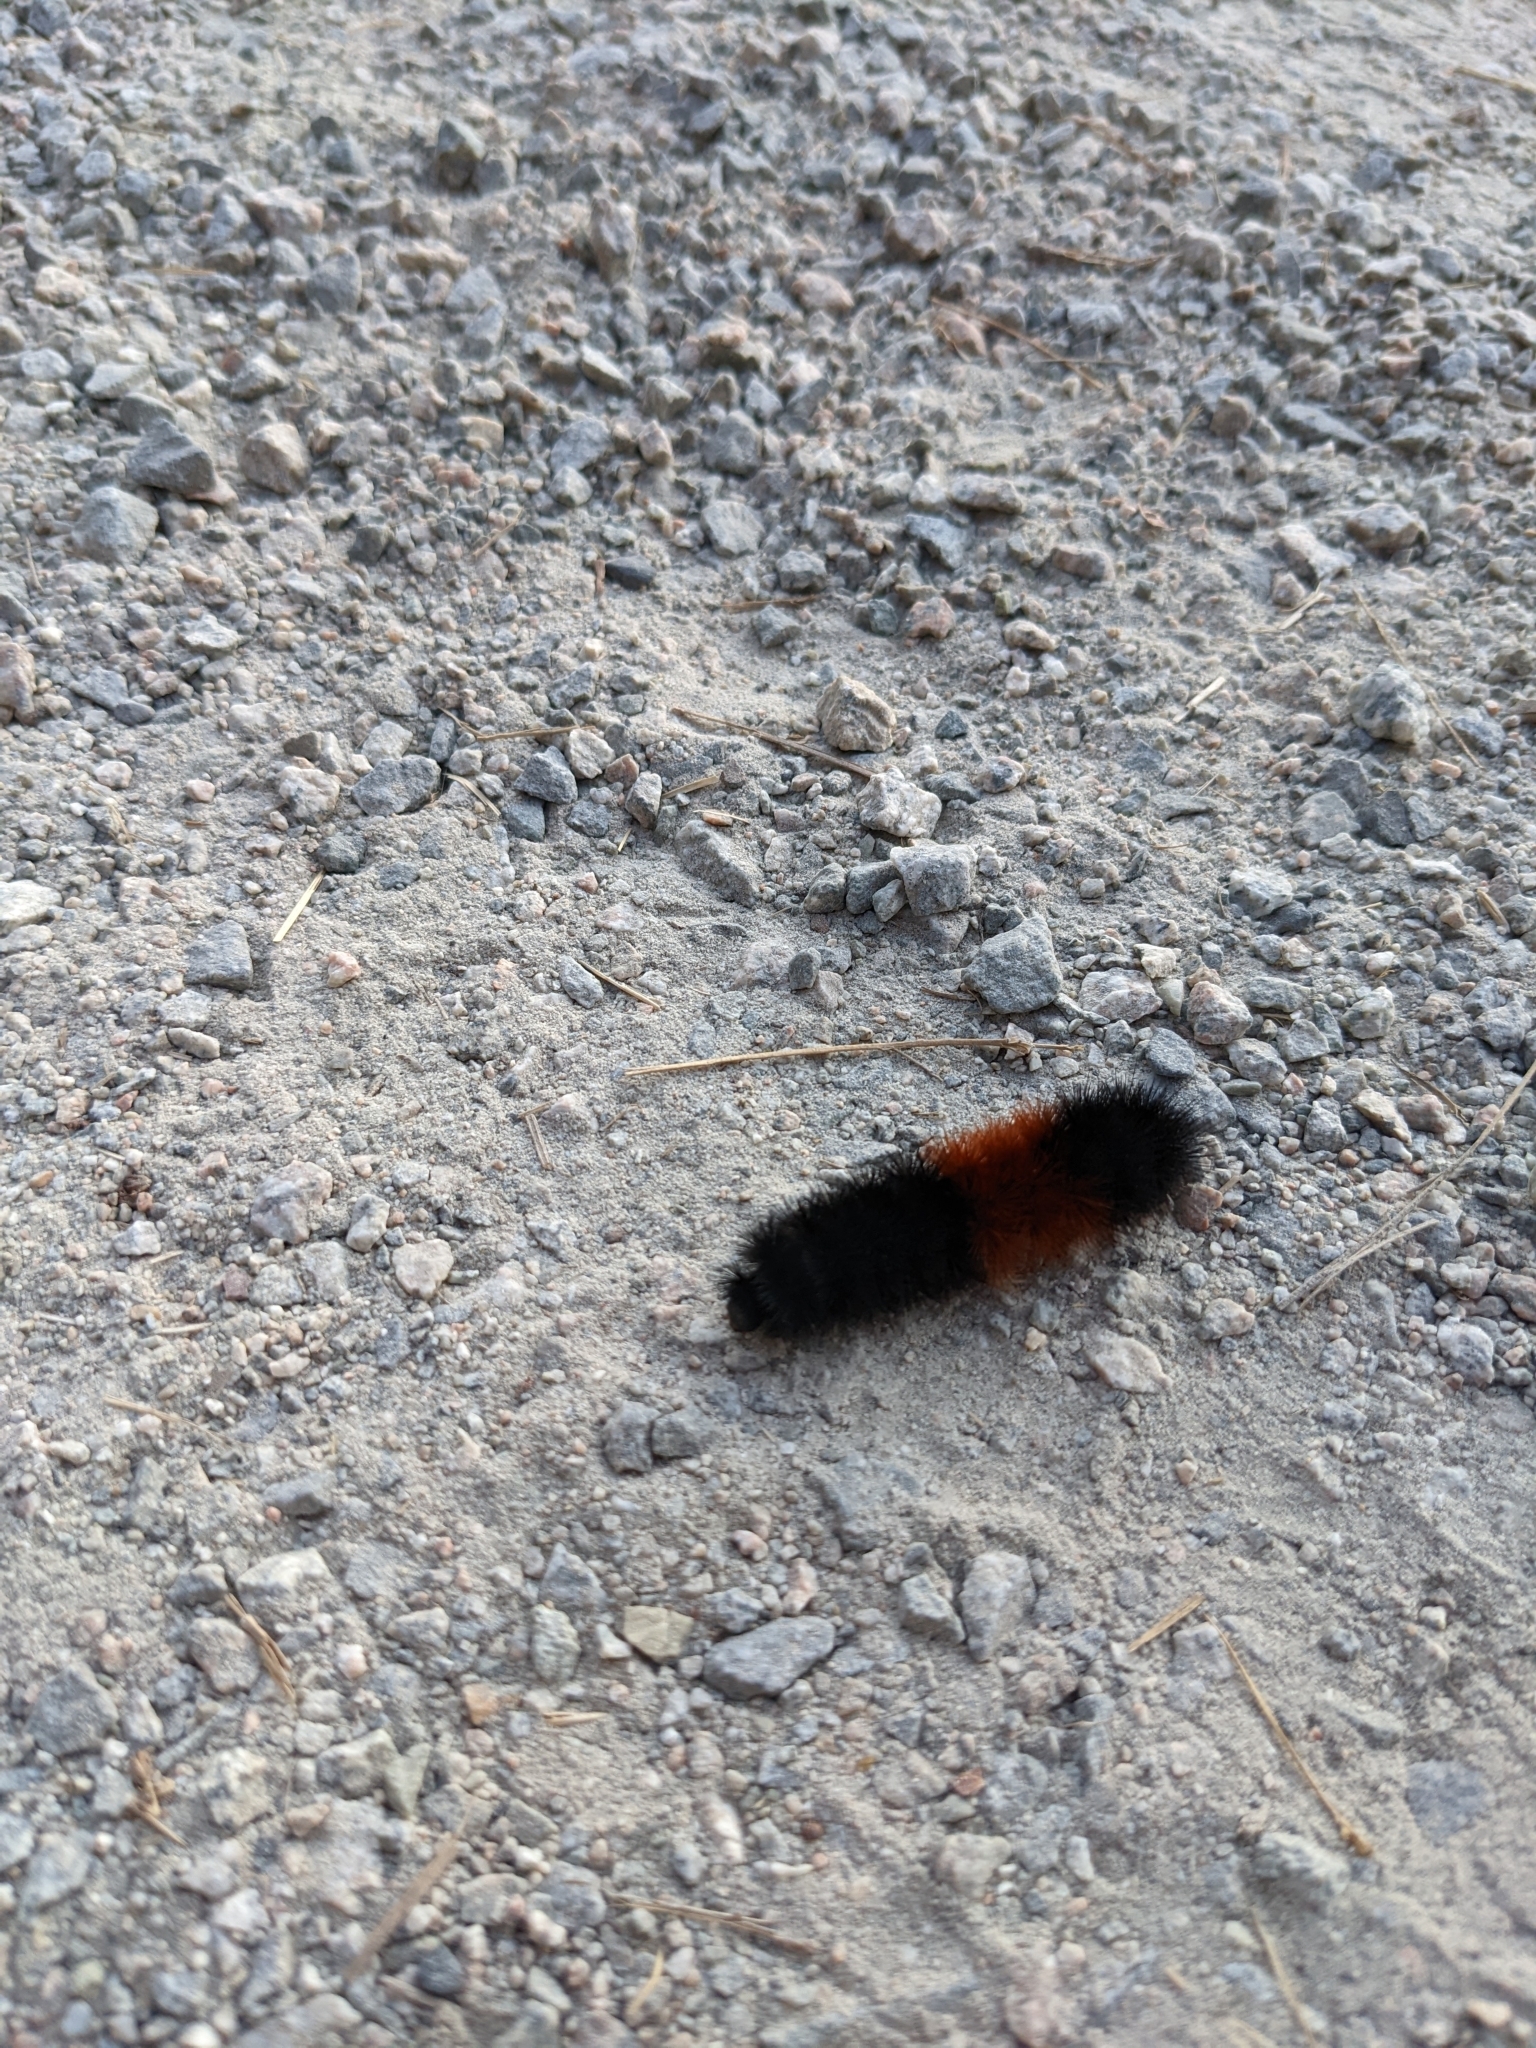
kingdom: Animalia
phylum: Arthropoda
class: Insecta
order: Lepidoptera
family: Erebidae
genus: Pyrrharctia
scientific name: Pyrrharctia isabella
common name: Isabella tiger moth
